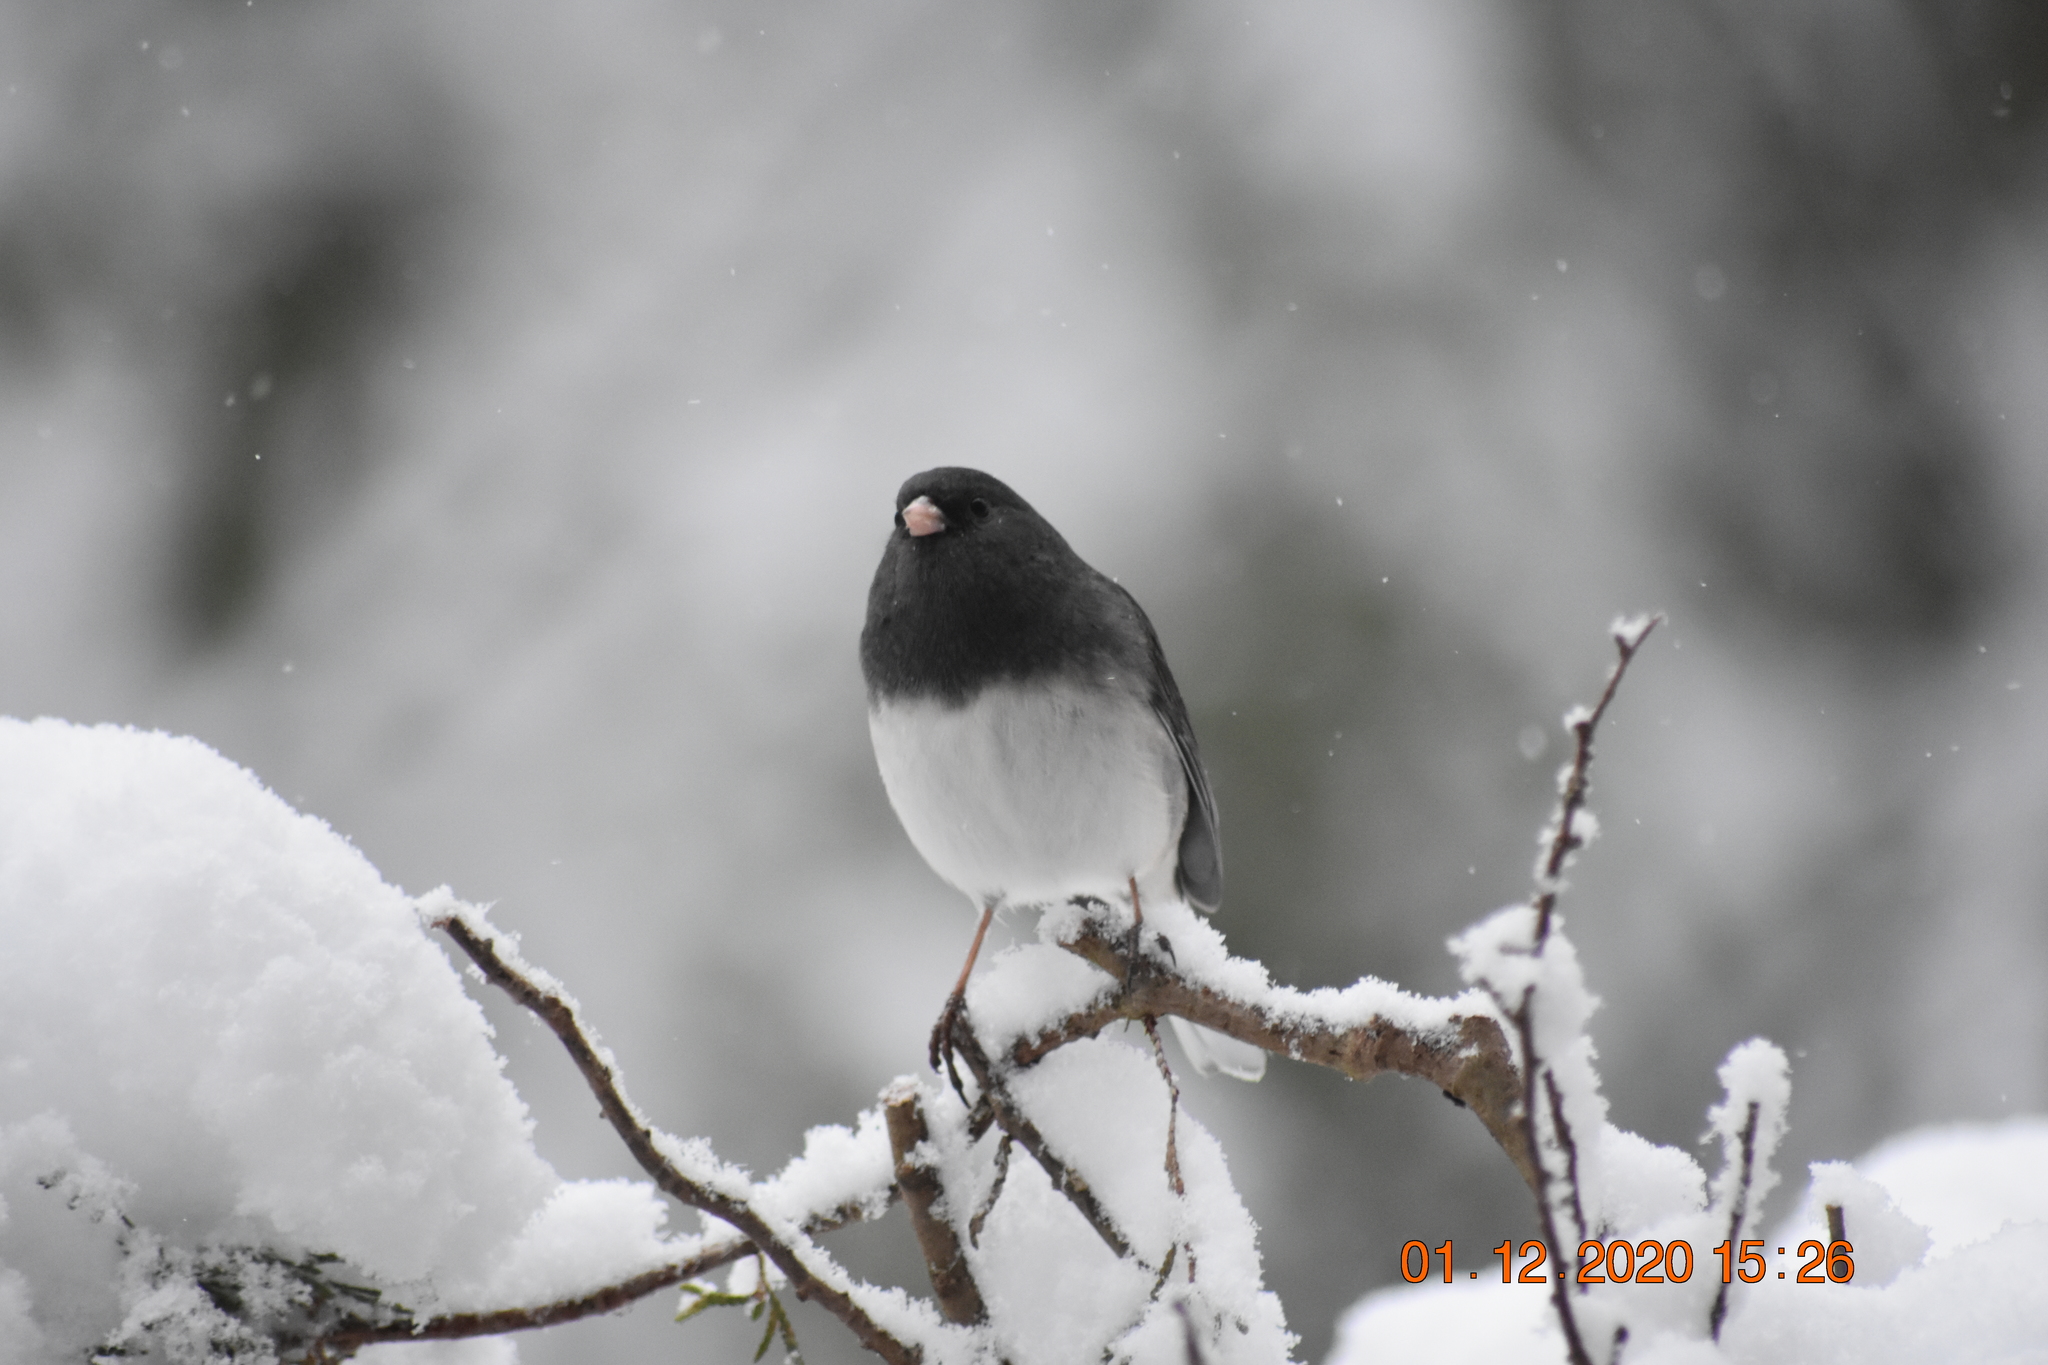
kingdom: Animalia
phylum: Chordata
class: Aves
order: Passeriformes
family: Passerellidae
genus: Junco
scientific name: Junco hyemalis
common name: Dark-eyed junco
